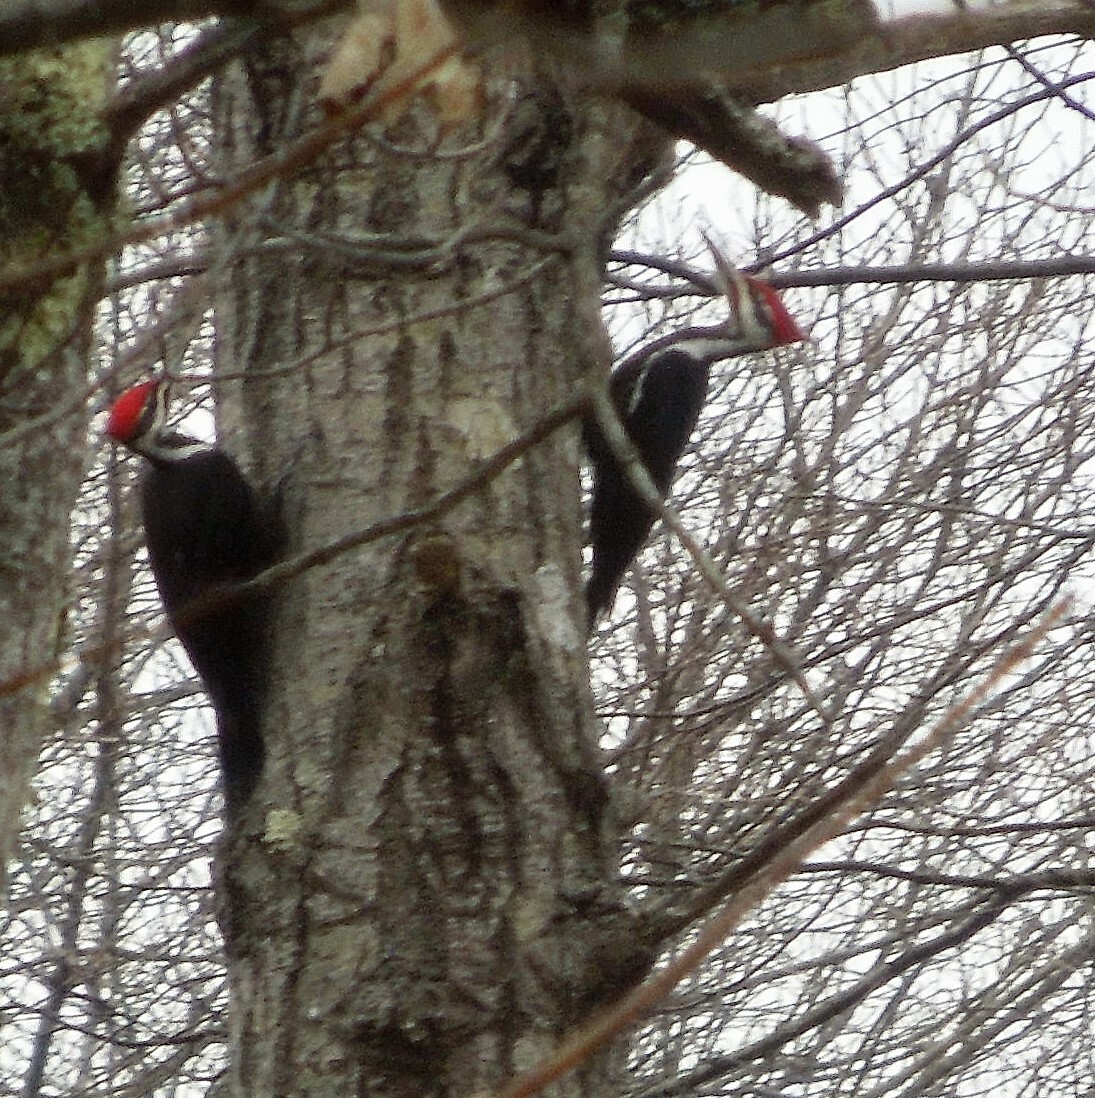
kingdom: Animalia
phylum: Chordata
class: Aves
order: Piciformes
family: Picidae
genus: Dryocopus
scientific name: Dryocopus pileatus
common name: Pileated woodpecker
